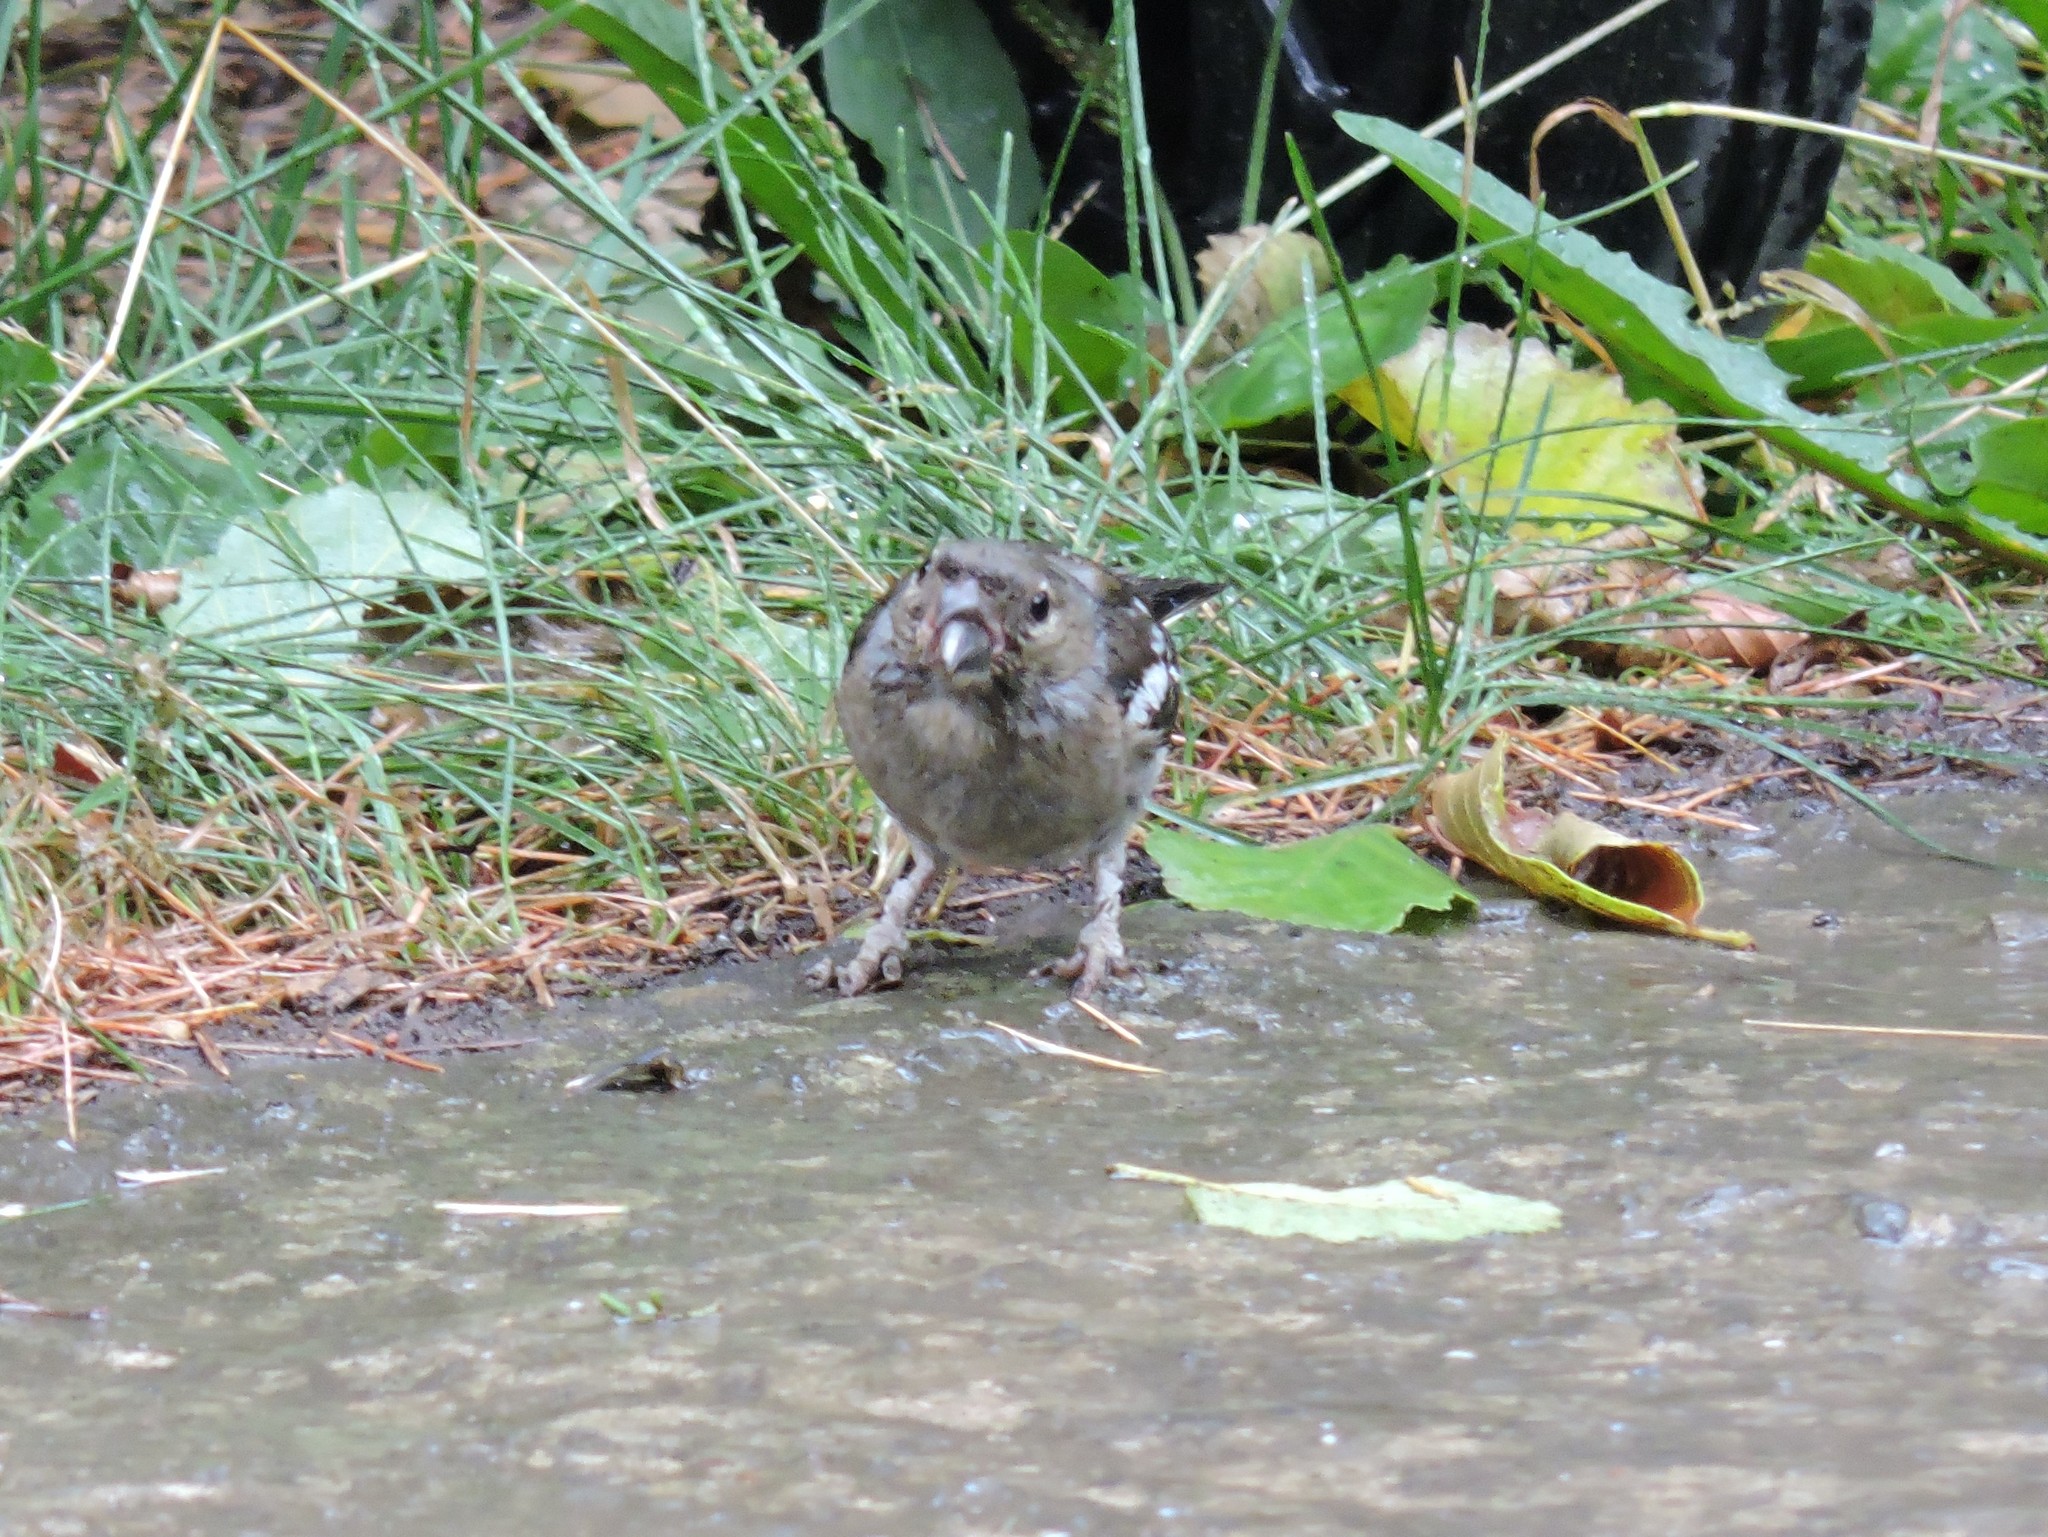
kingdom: Animalia
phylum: Chordata
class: Aves
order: Passeriformes
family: Fringillidae
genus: Fringilla
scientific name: Fringilla coelebs
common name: Common chaffinch
